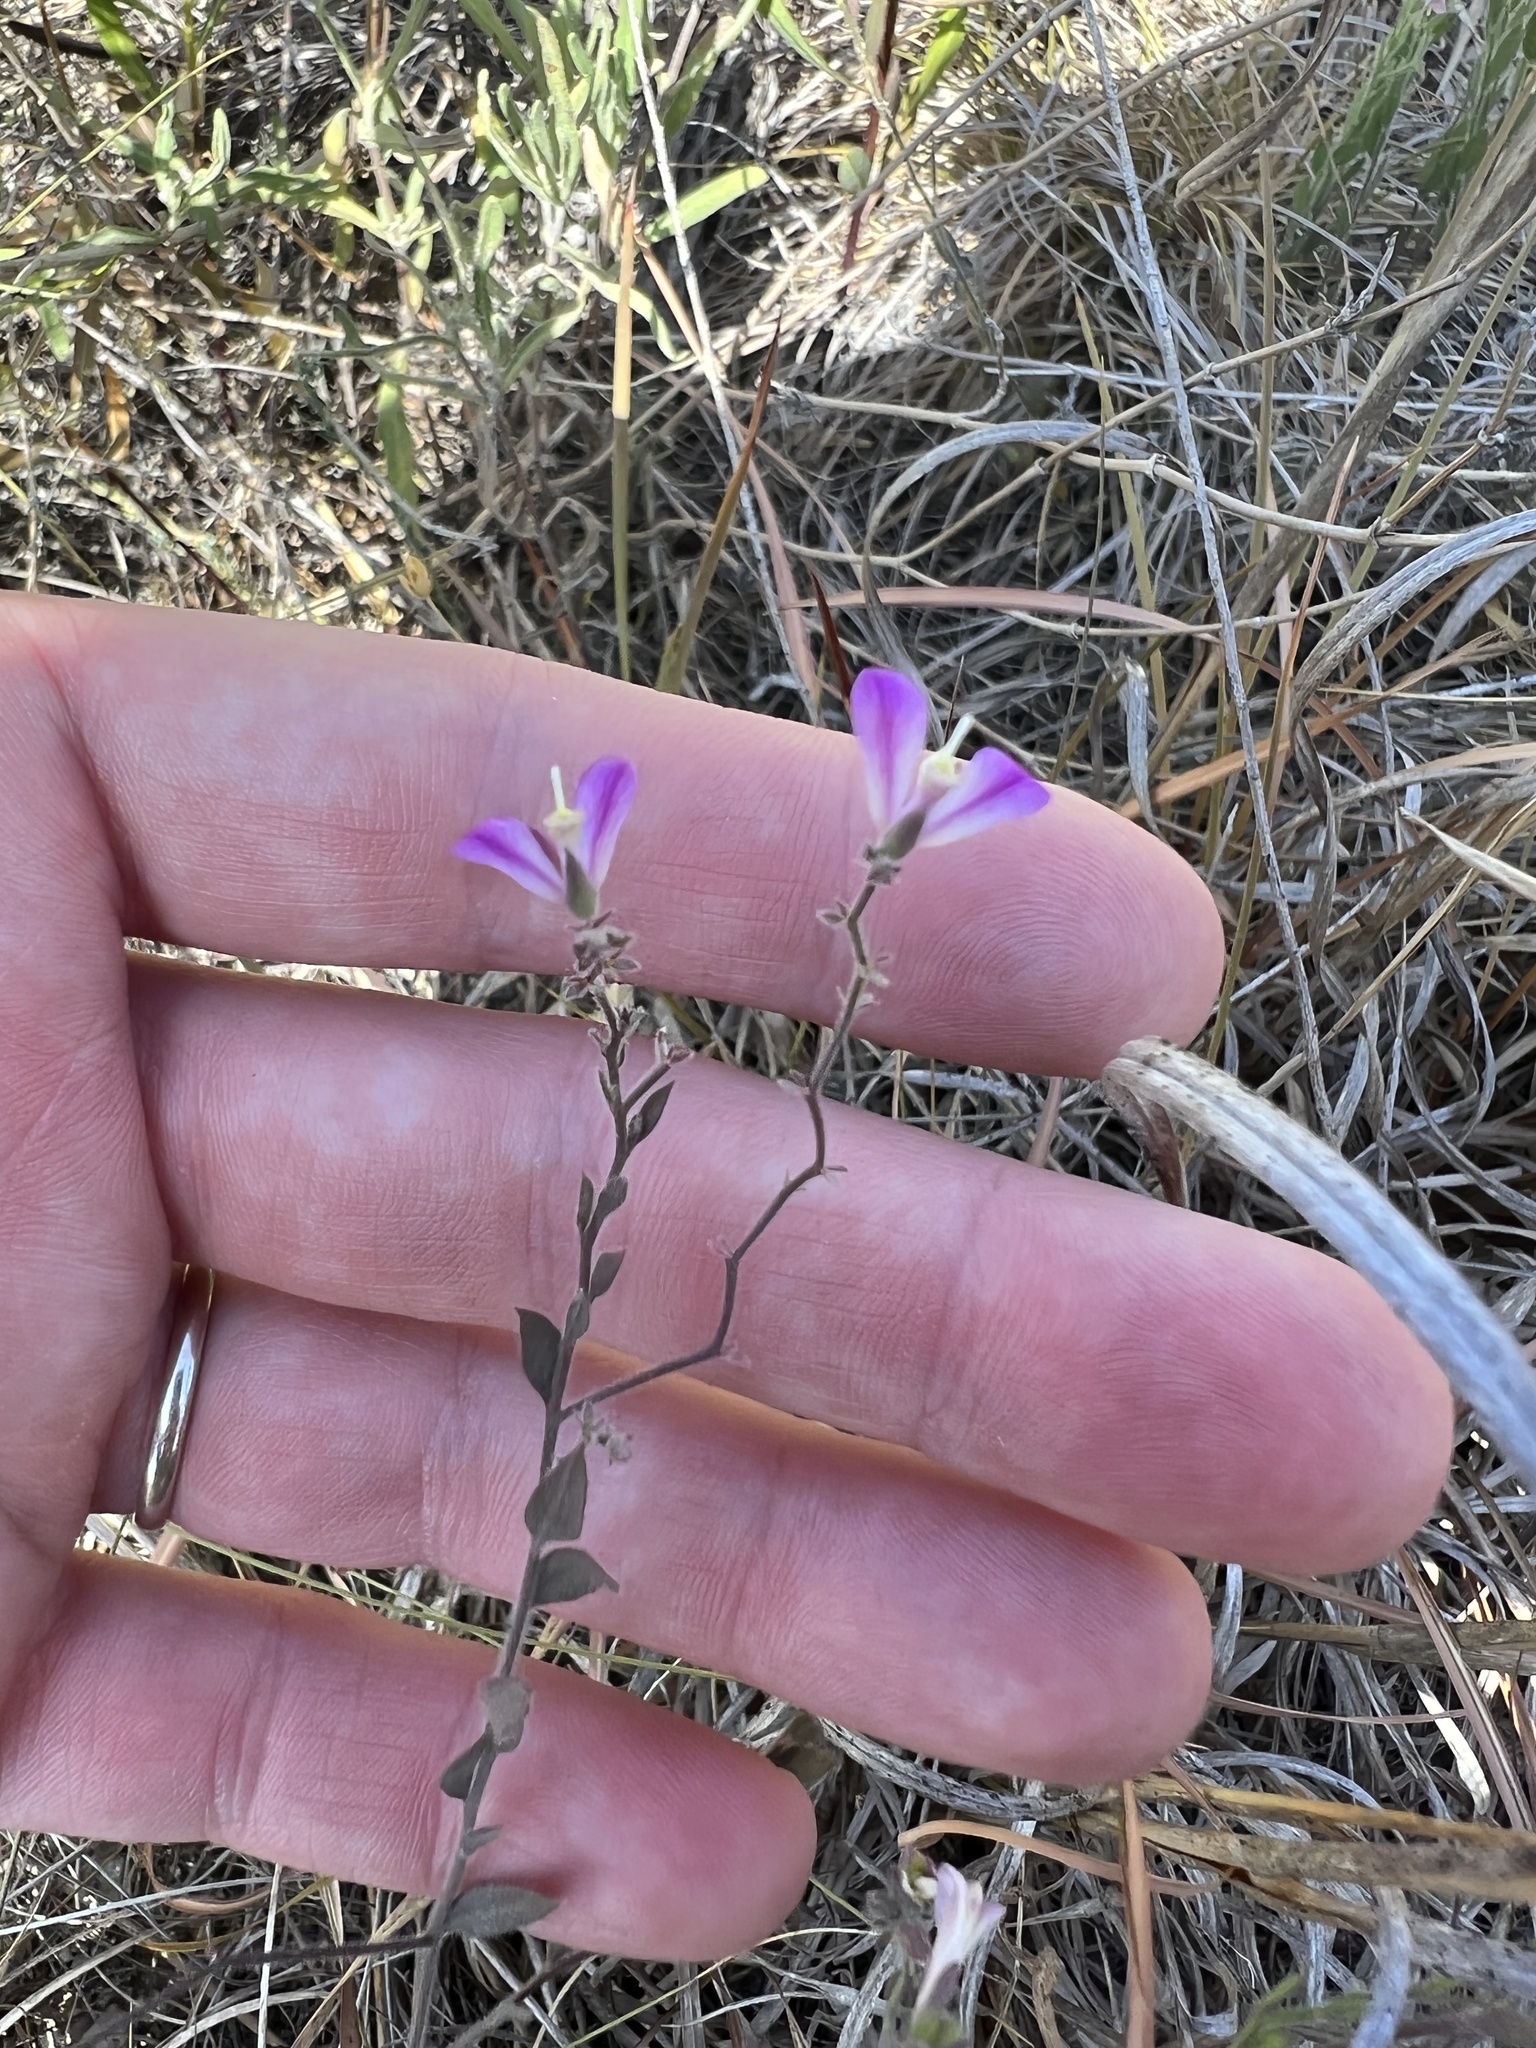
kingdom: Plantae
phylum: Tracheophyta
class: Magnoliopsida
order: Fabales
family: Polygalaceae
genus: Rhinotropis
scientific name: Rhinotropis lindheimeri
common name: Shrubby milkwort
